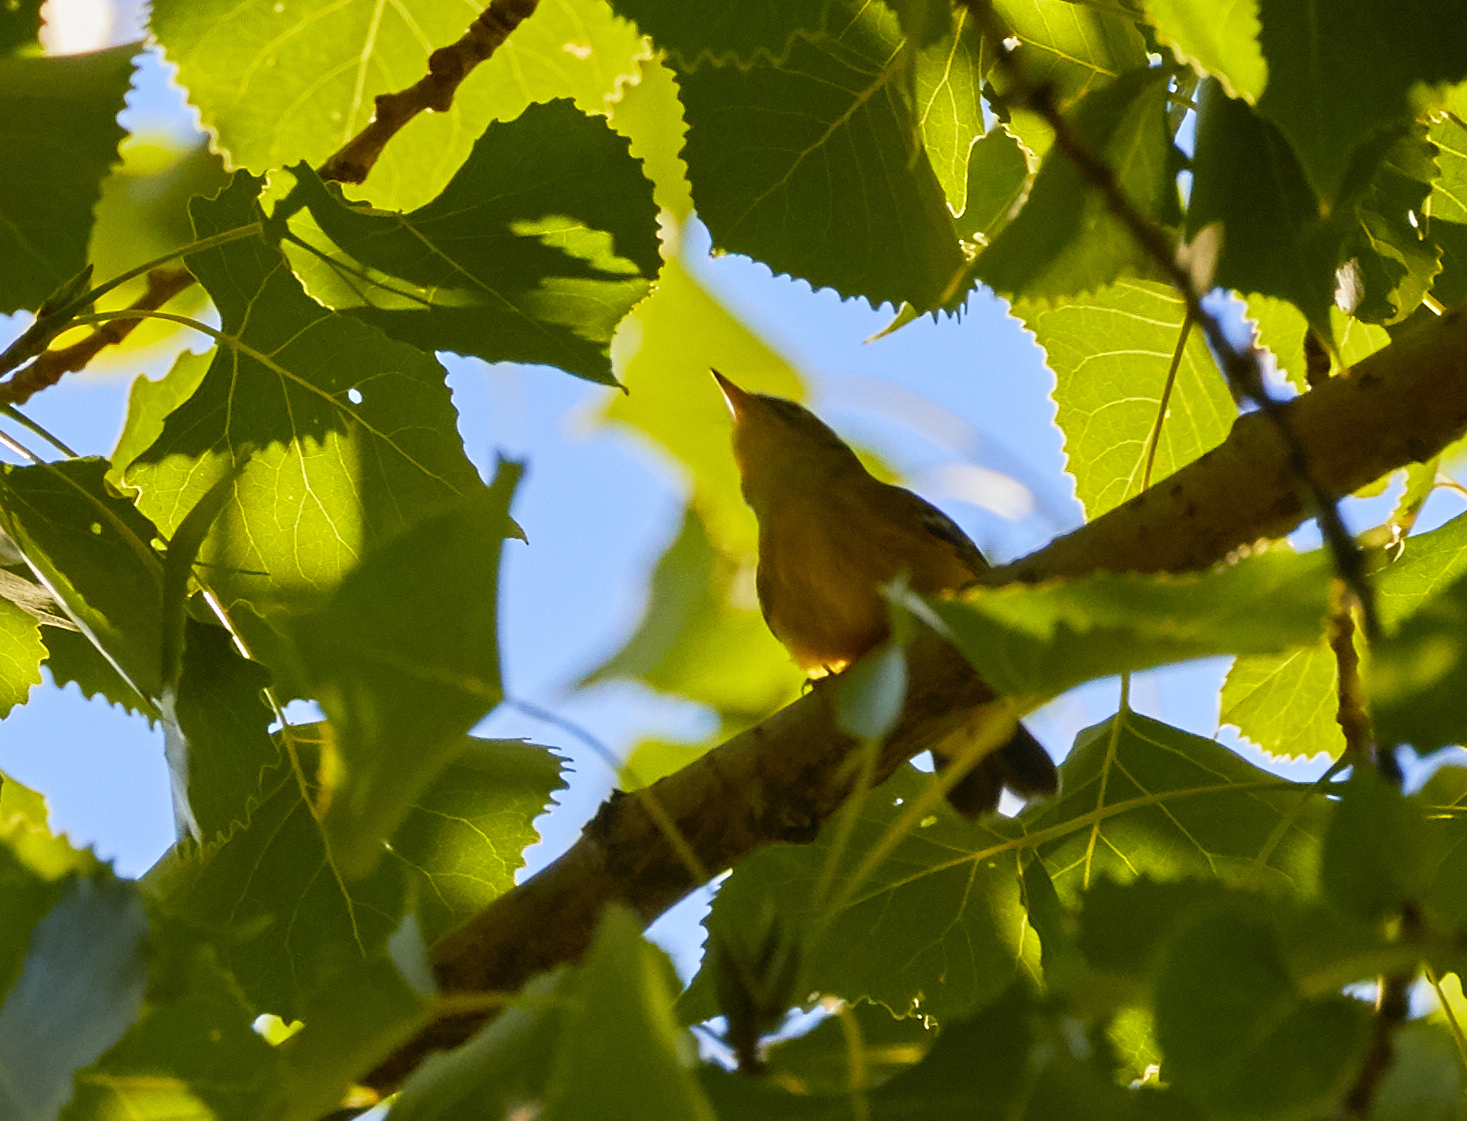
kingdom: Animalia
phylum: Chordata
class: Aves
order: Passeriformes
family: Parulidae
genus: Setophaga
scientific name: Setophaga magnolia
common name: Magnolia warbler
